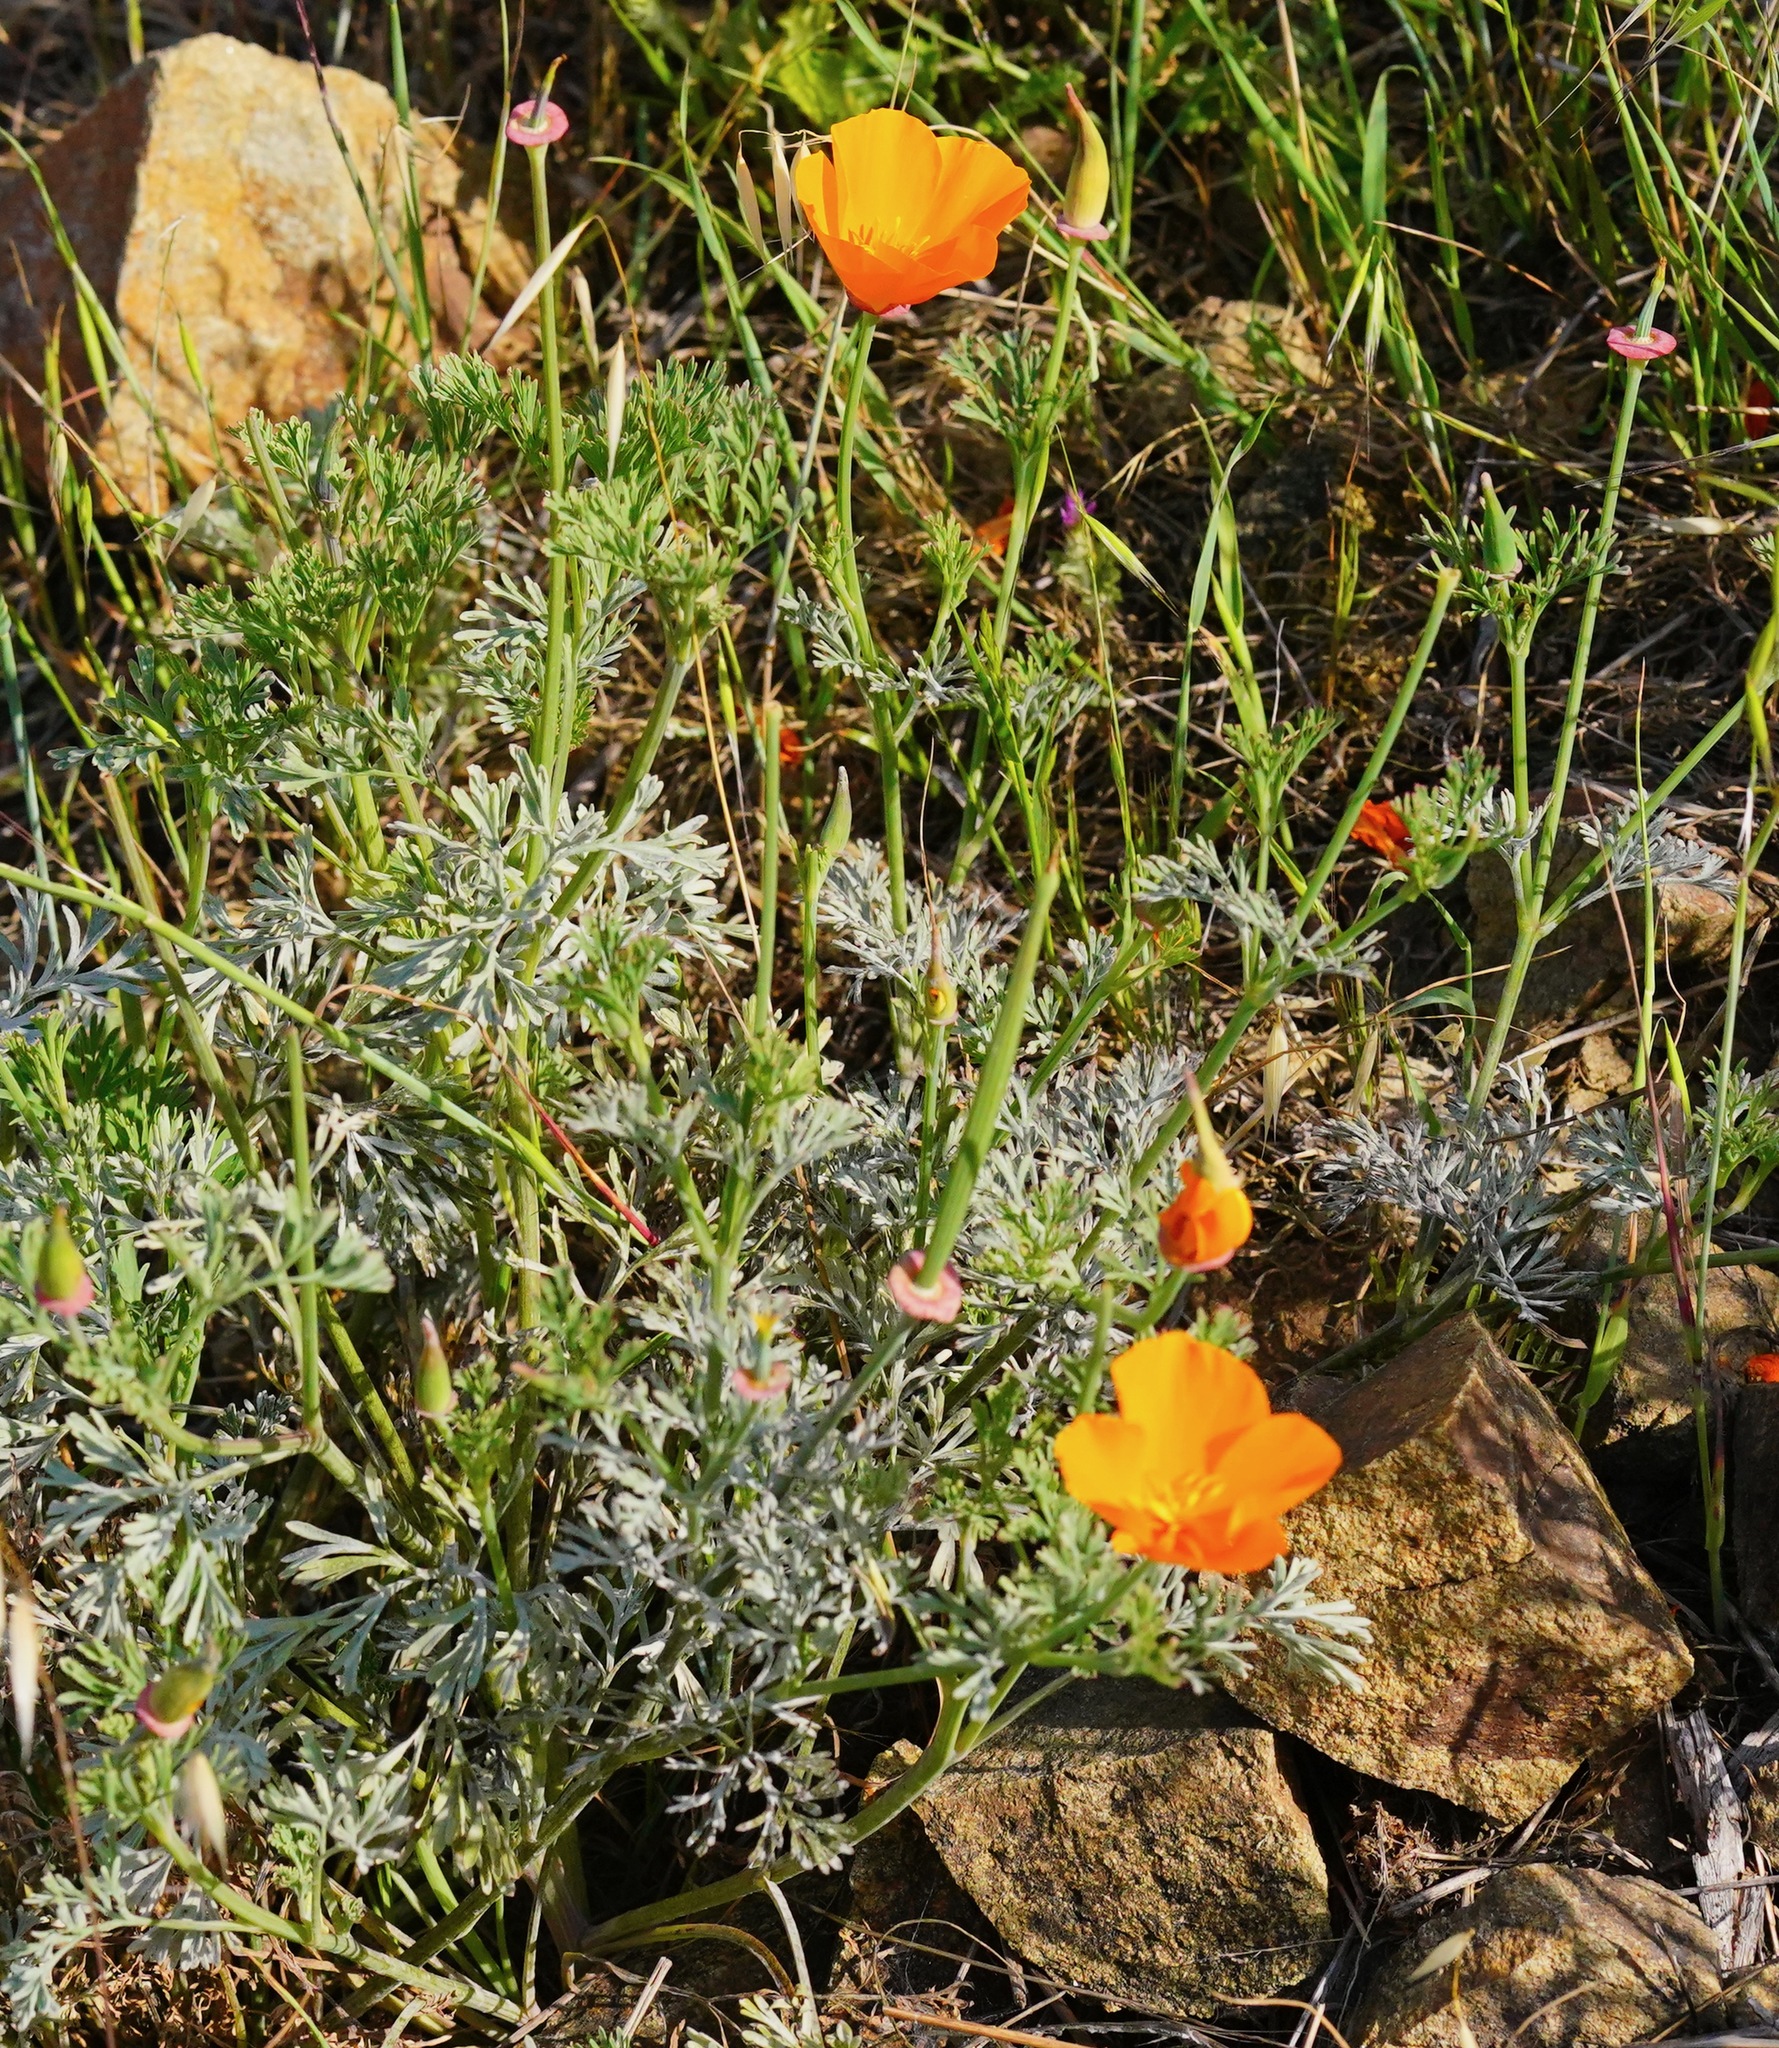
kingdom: Plantae
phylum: Tracheophyta
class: Magnoliopsida
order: Ranunculales
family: Papaveraceae
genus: Eschscholzia
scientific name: Eschscholzia californica
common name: California poppy
